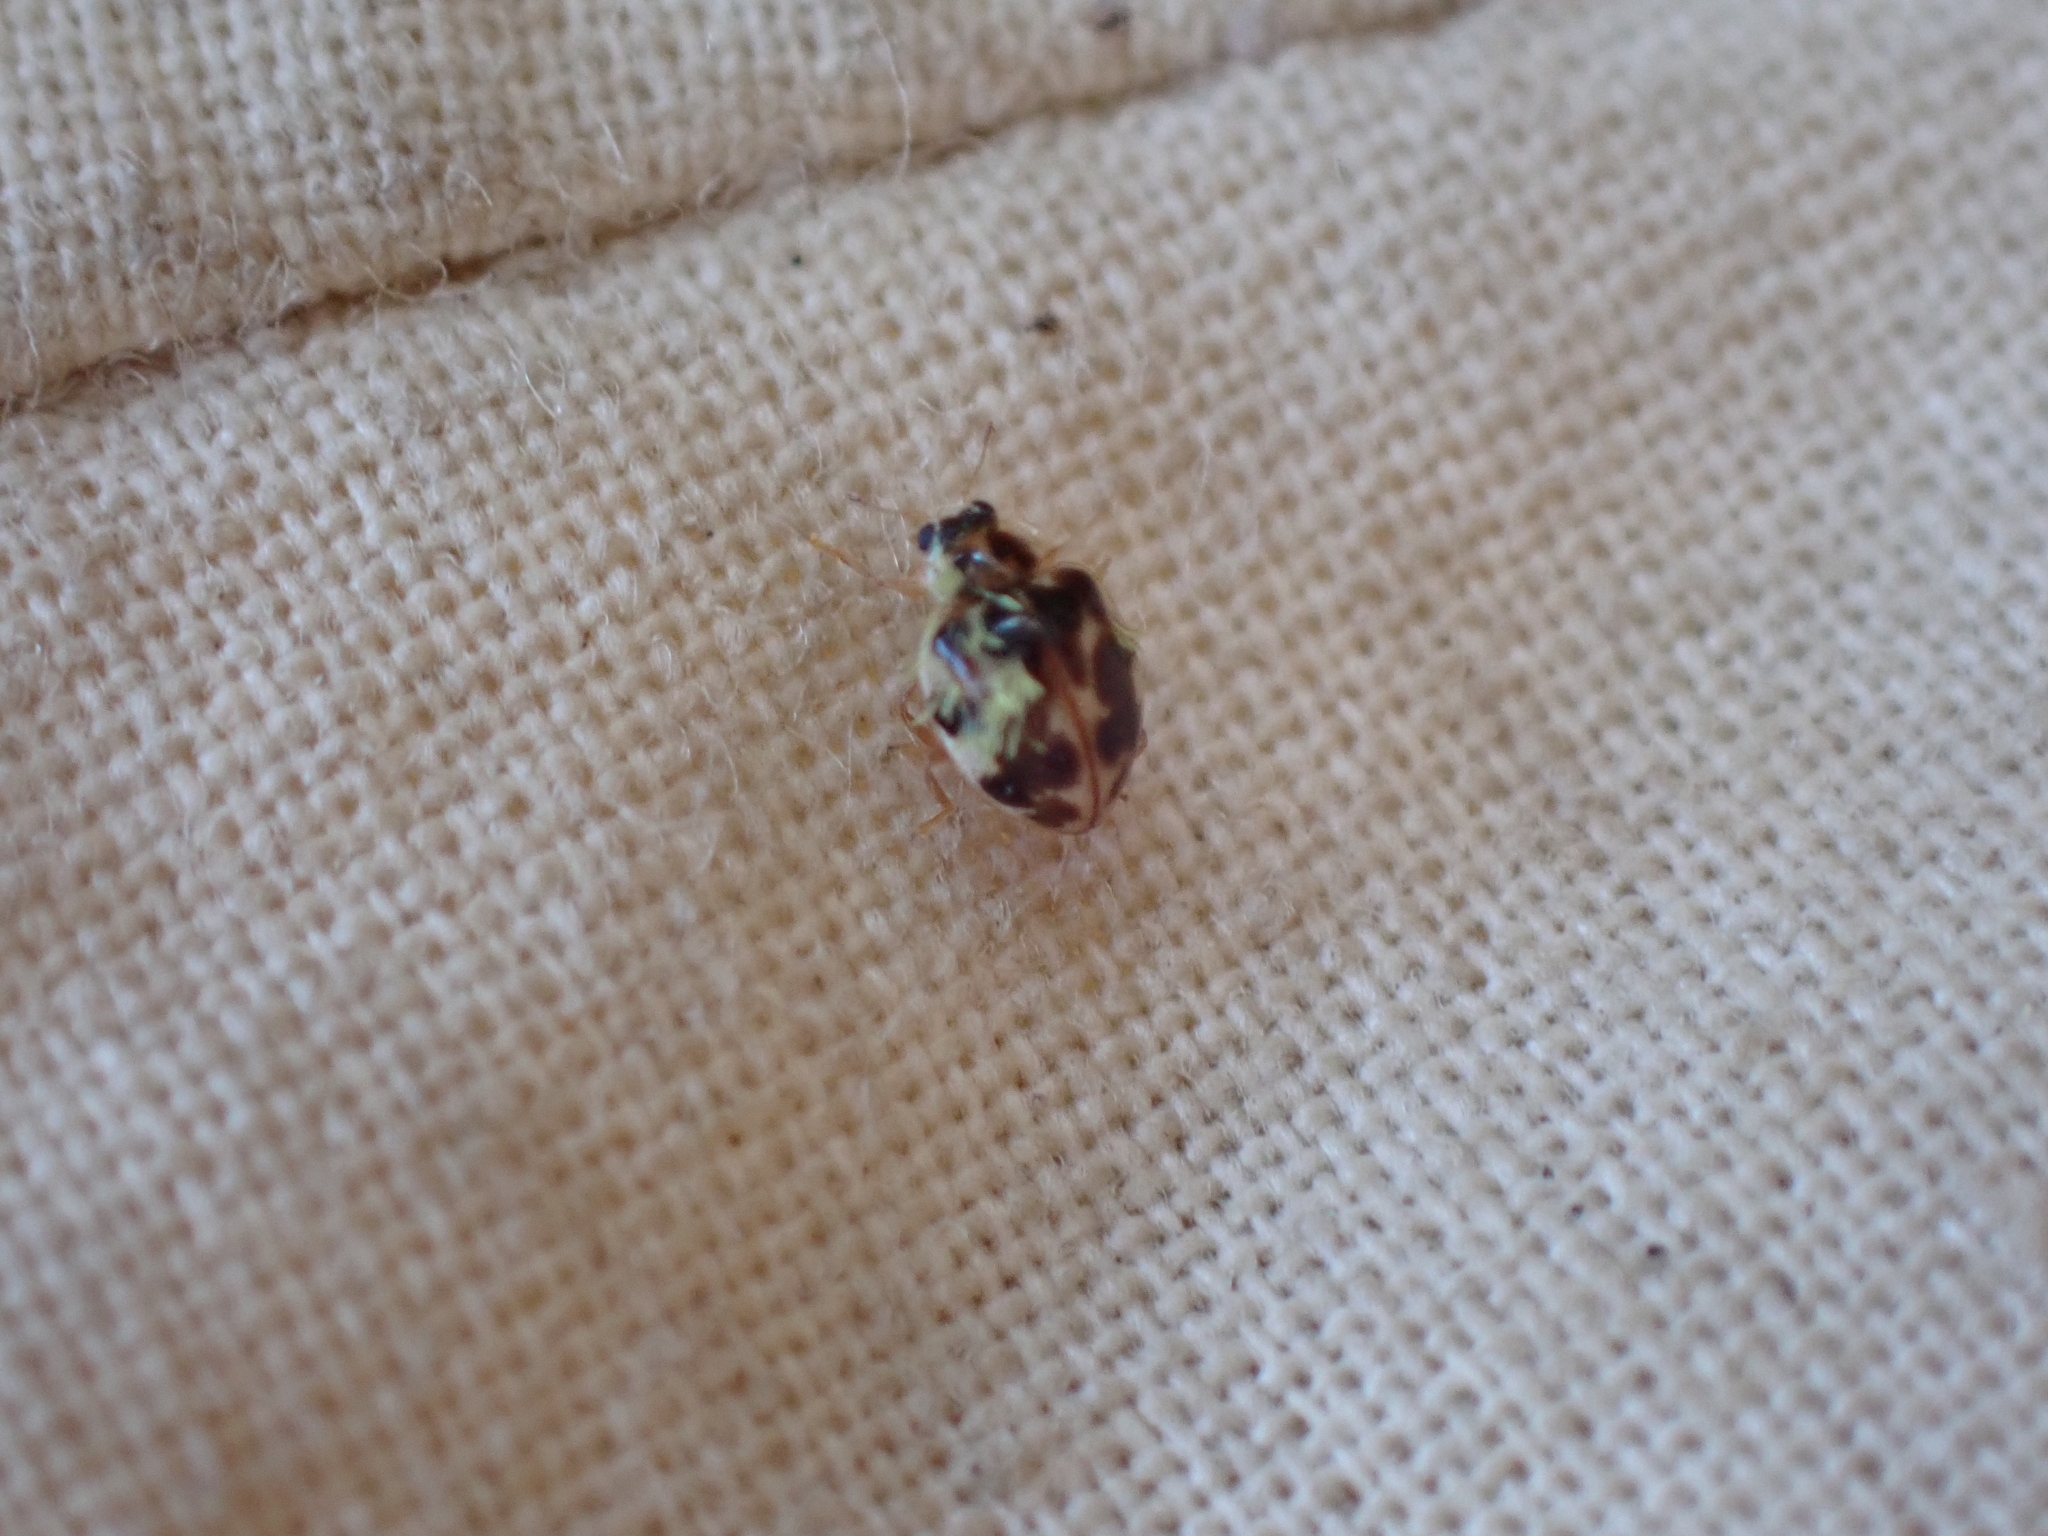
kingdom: Animalia
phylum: Arthropoda
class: Insecta
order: Coleoptera
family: Coccinellidae
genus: Psyllobora
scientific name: Psyllobora vigintimaculata
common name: Ladybird beetle
